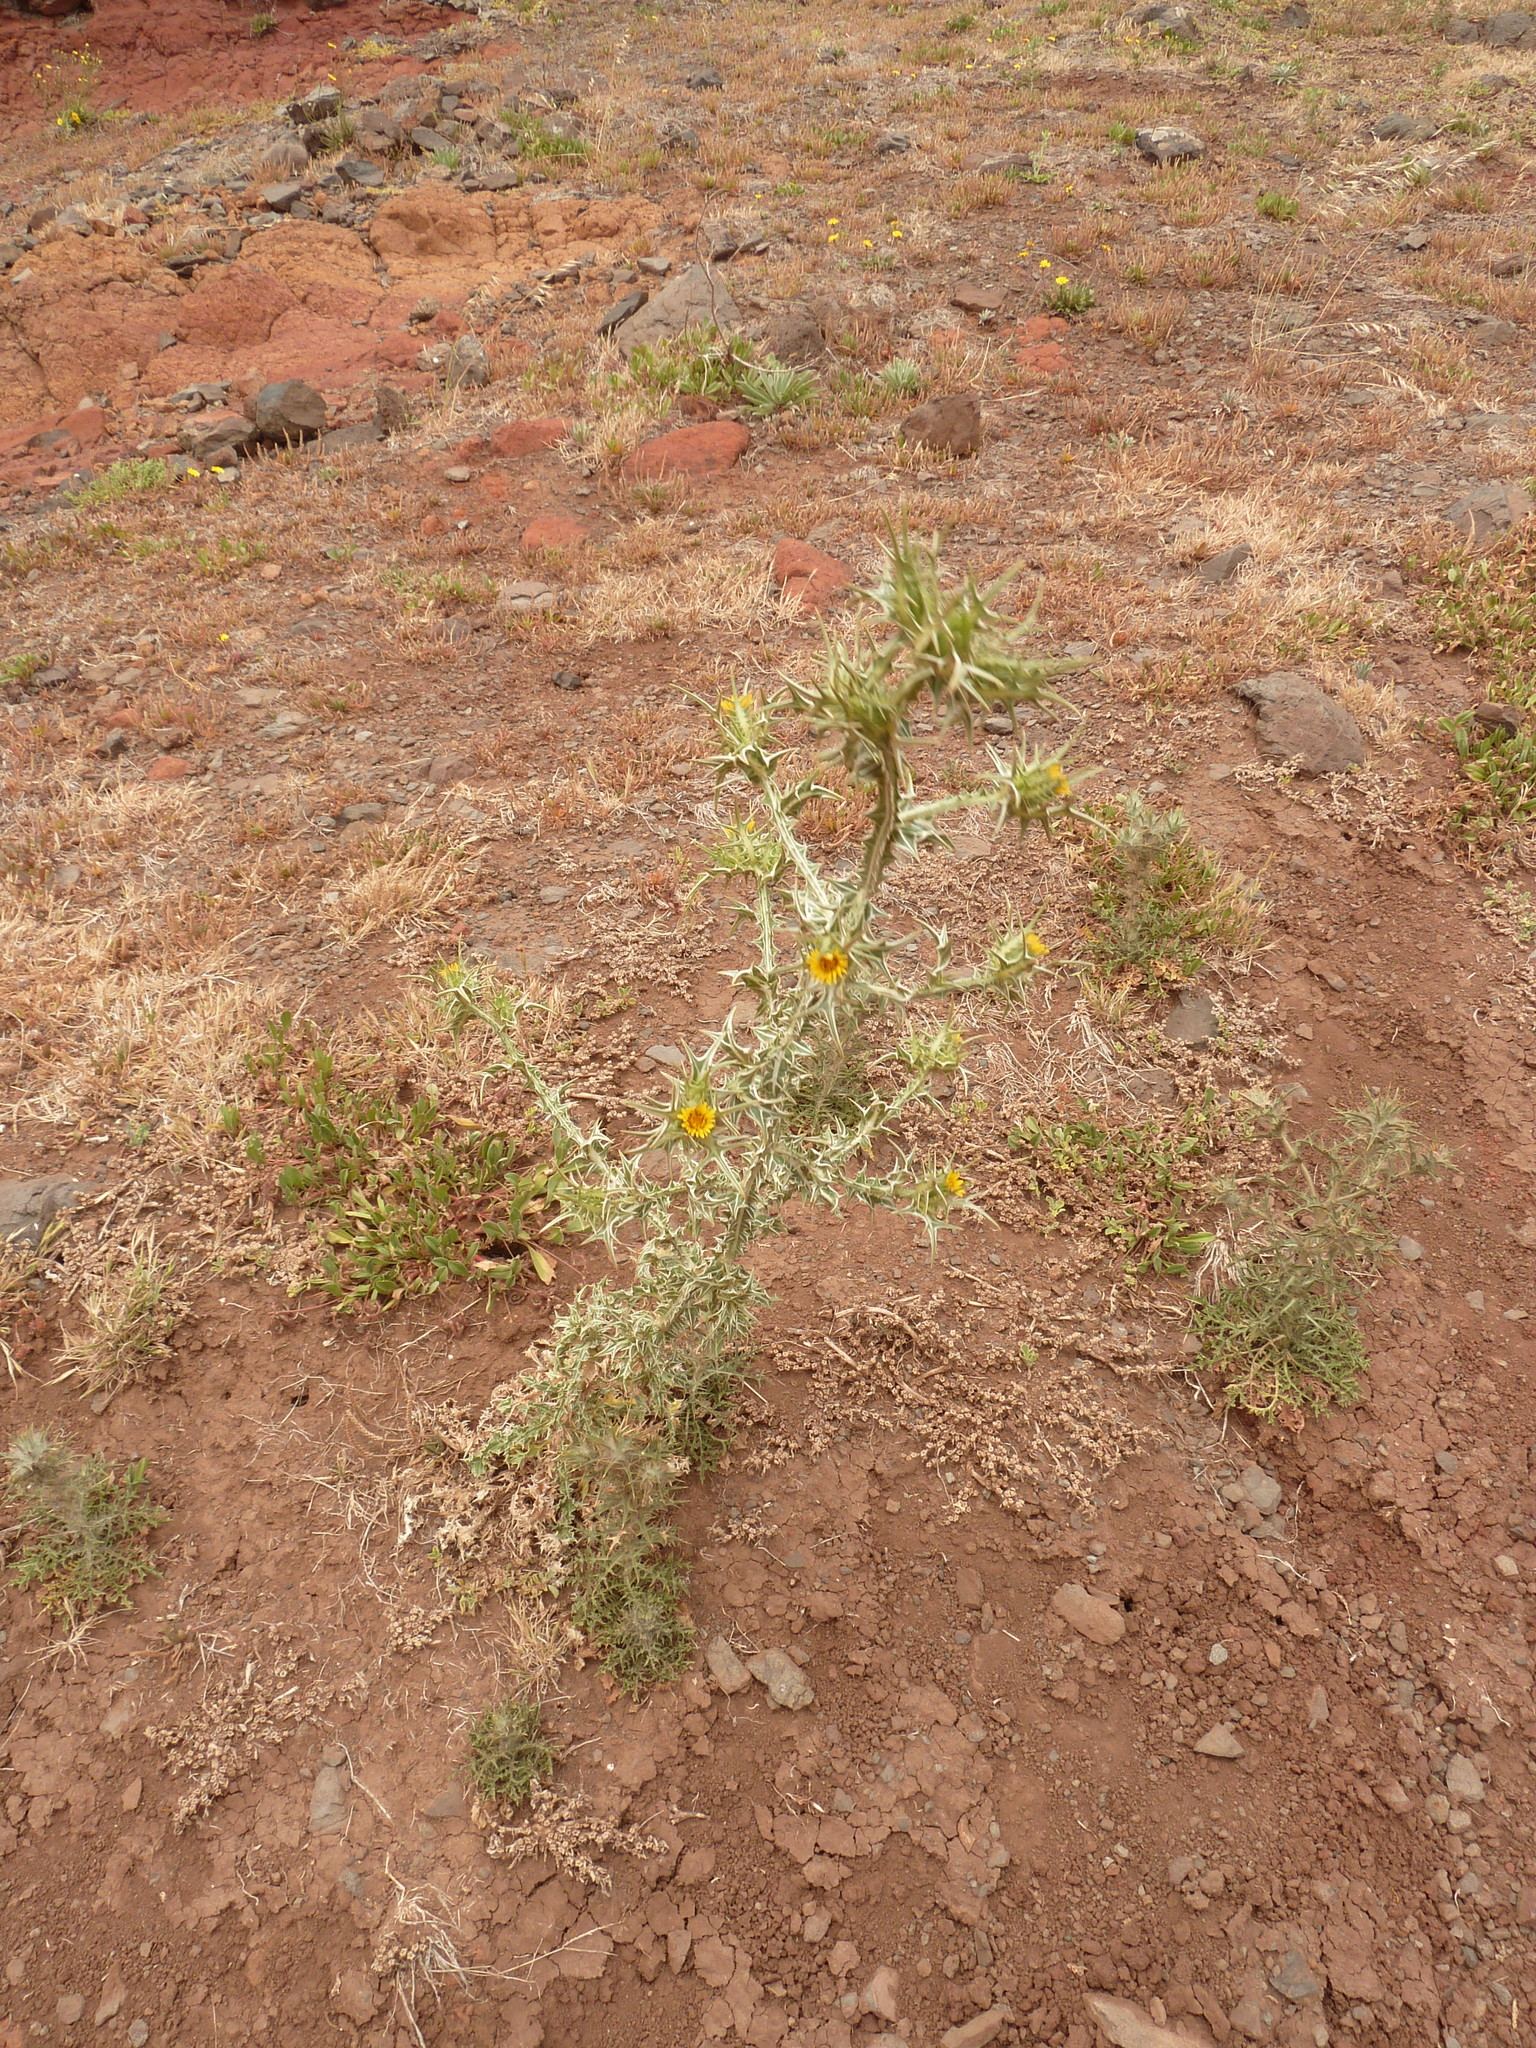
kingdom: Plantae
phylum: Tracheophyta
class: Magnoliopsida
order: Asterales
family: Asteraceae
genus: Scolymus
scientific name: Scolymus maculatus
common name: Spotted thistle
